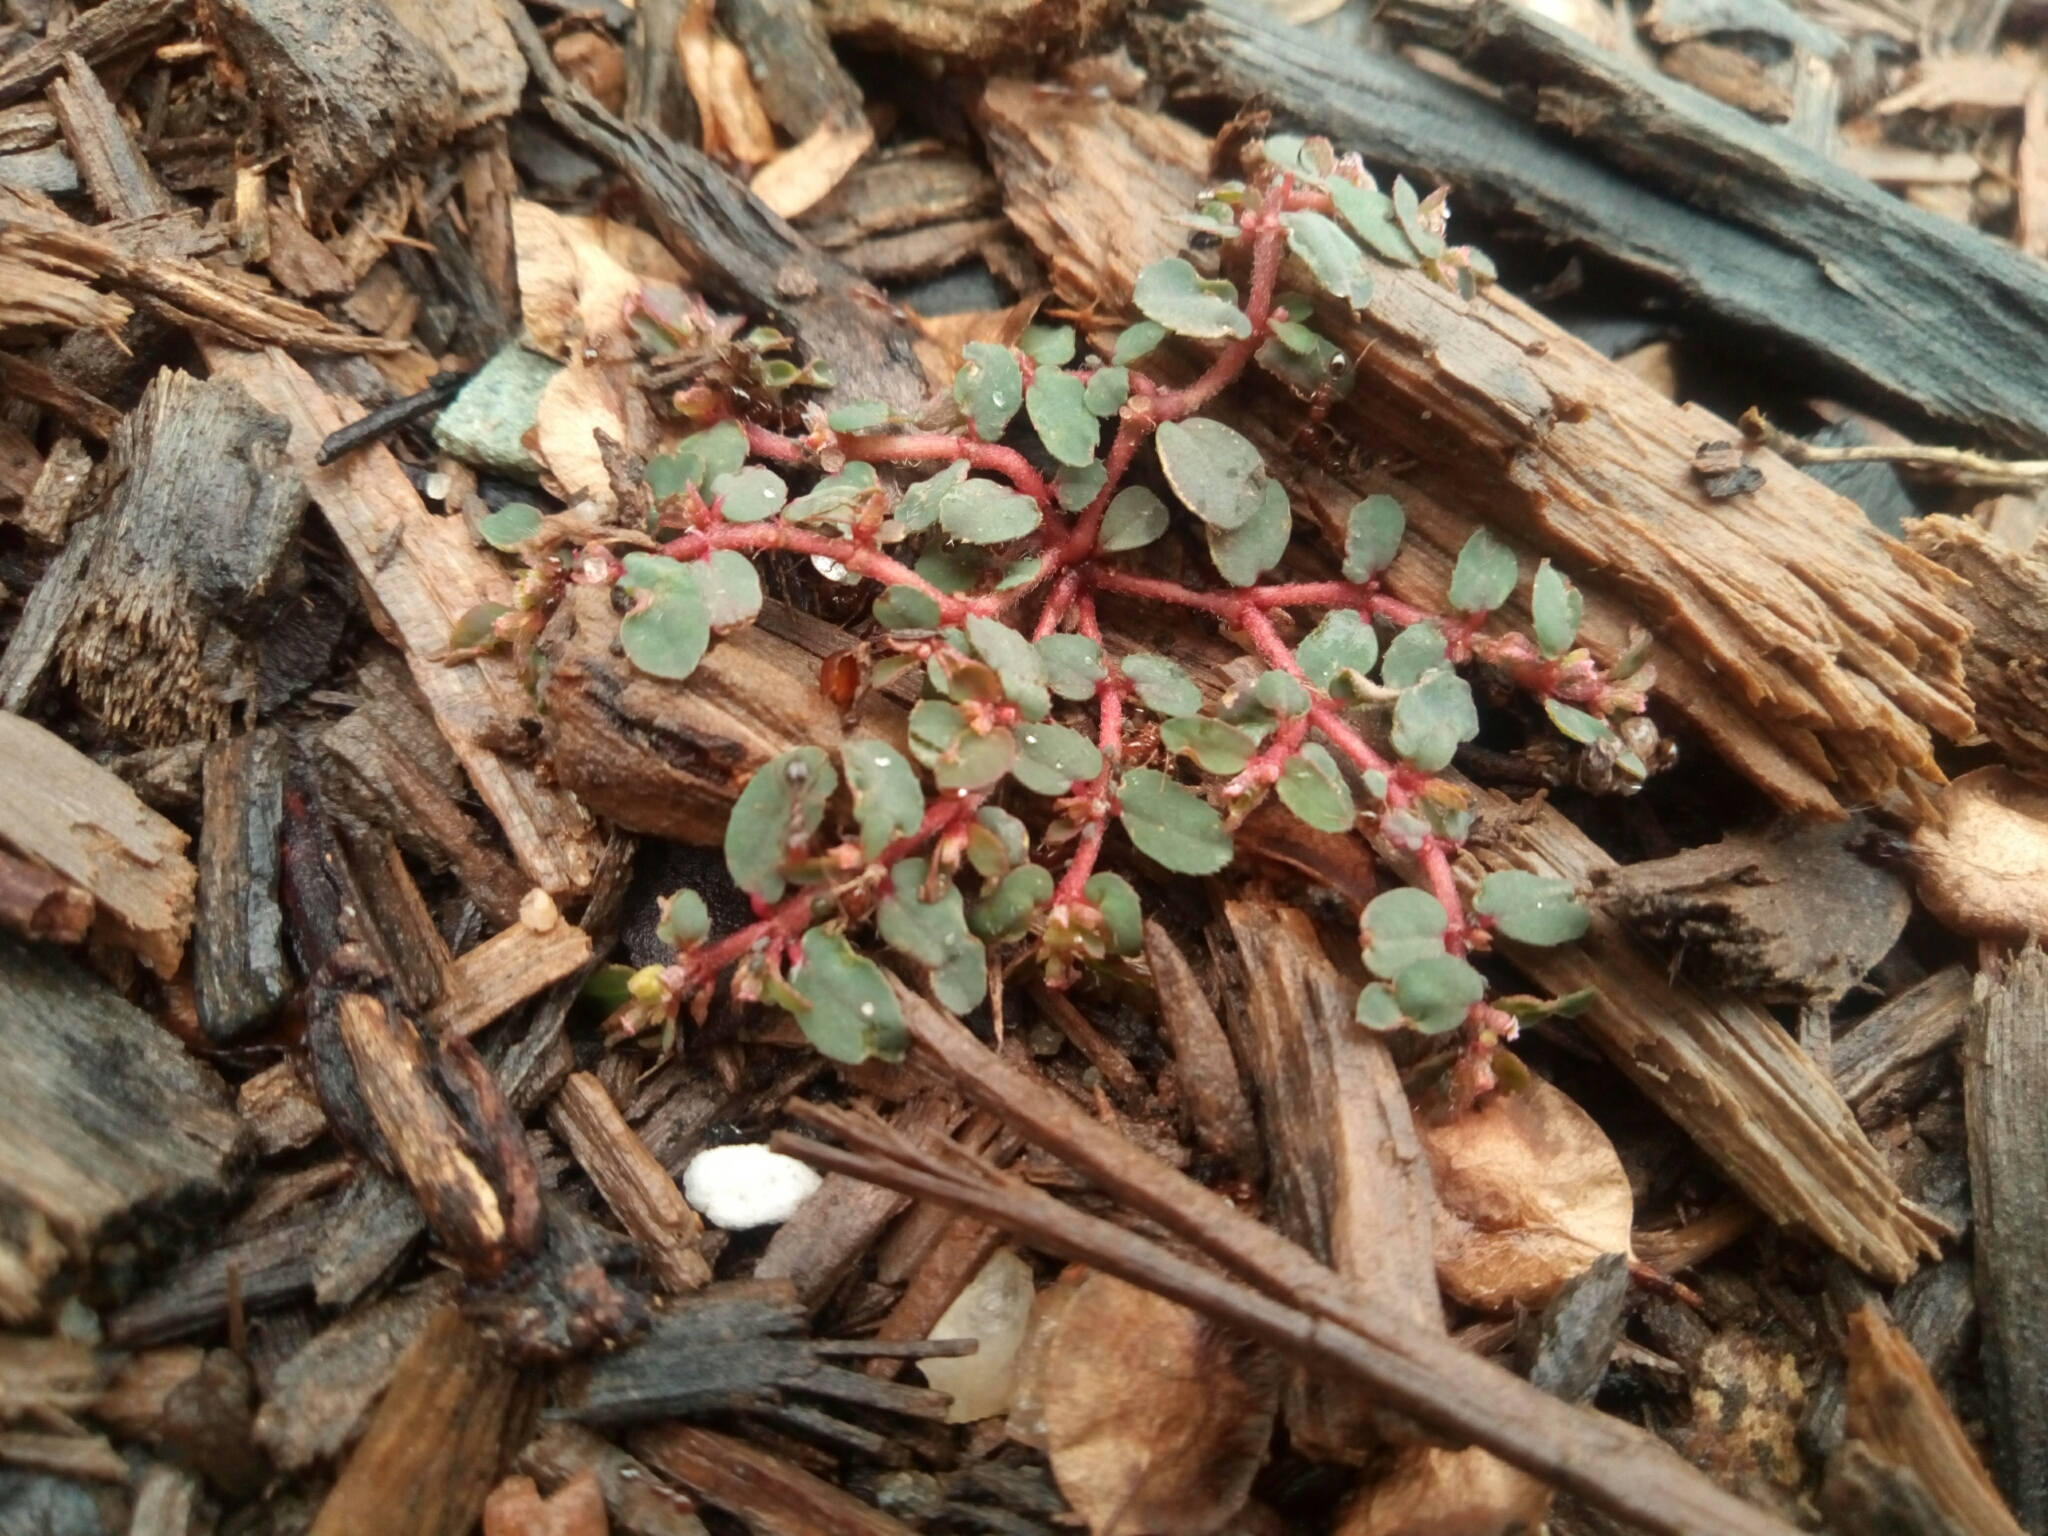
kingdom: Plantae
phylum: Tracheophyta
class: Magnoliopsida
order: Malpighiales
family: Euphorbiaceae
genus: Euphorbia
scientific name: Euphorbia maculata
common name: Spotted spurge
